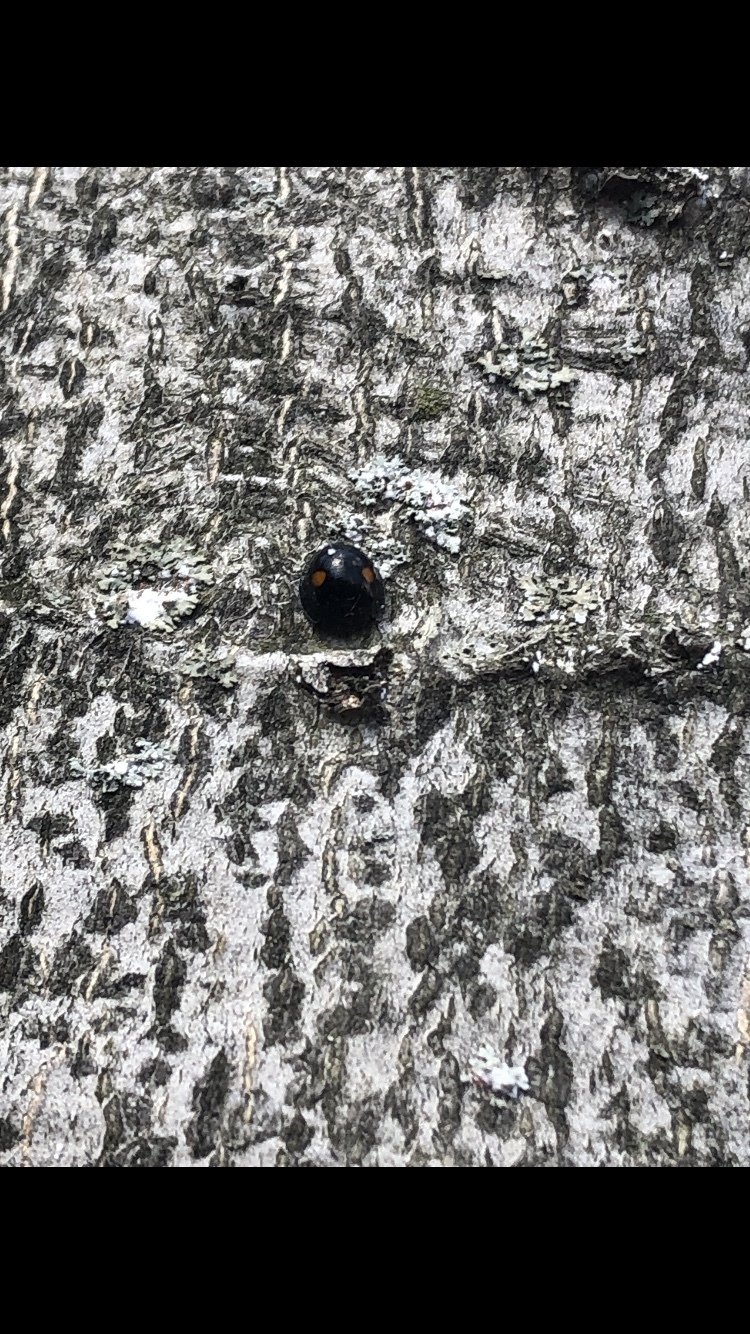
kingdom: Animalia
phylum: Arthropoda
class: Insecta
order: Coleoptera
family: Coccinellidae
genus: Chilocorus
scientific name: Chilocorus stigma
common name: Twicestabbed lady beetle
